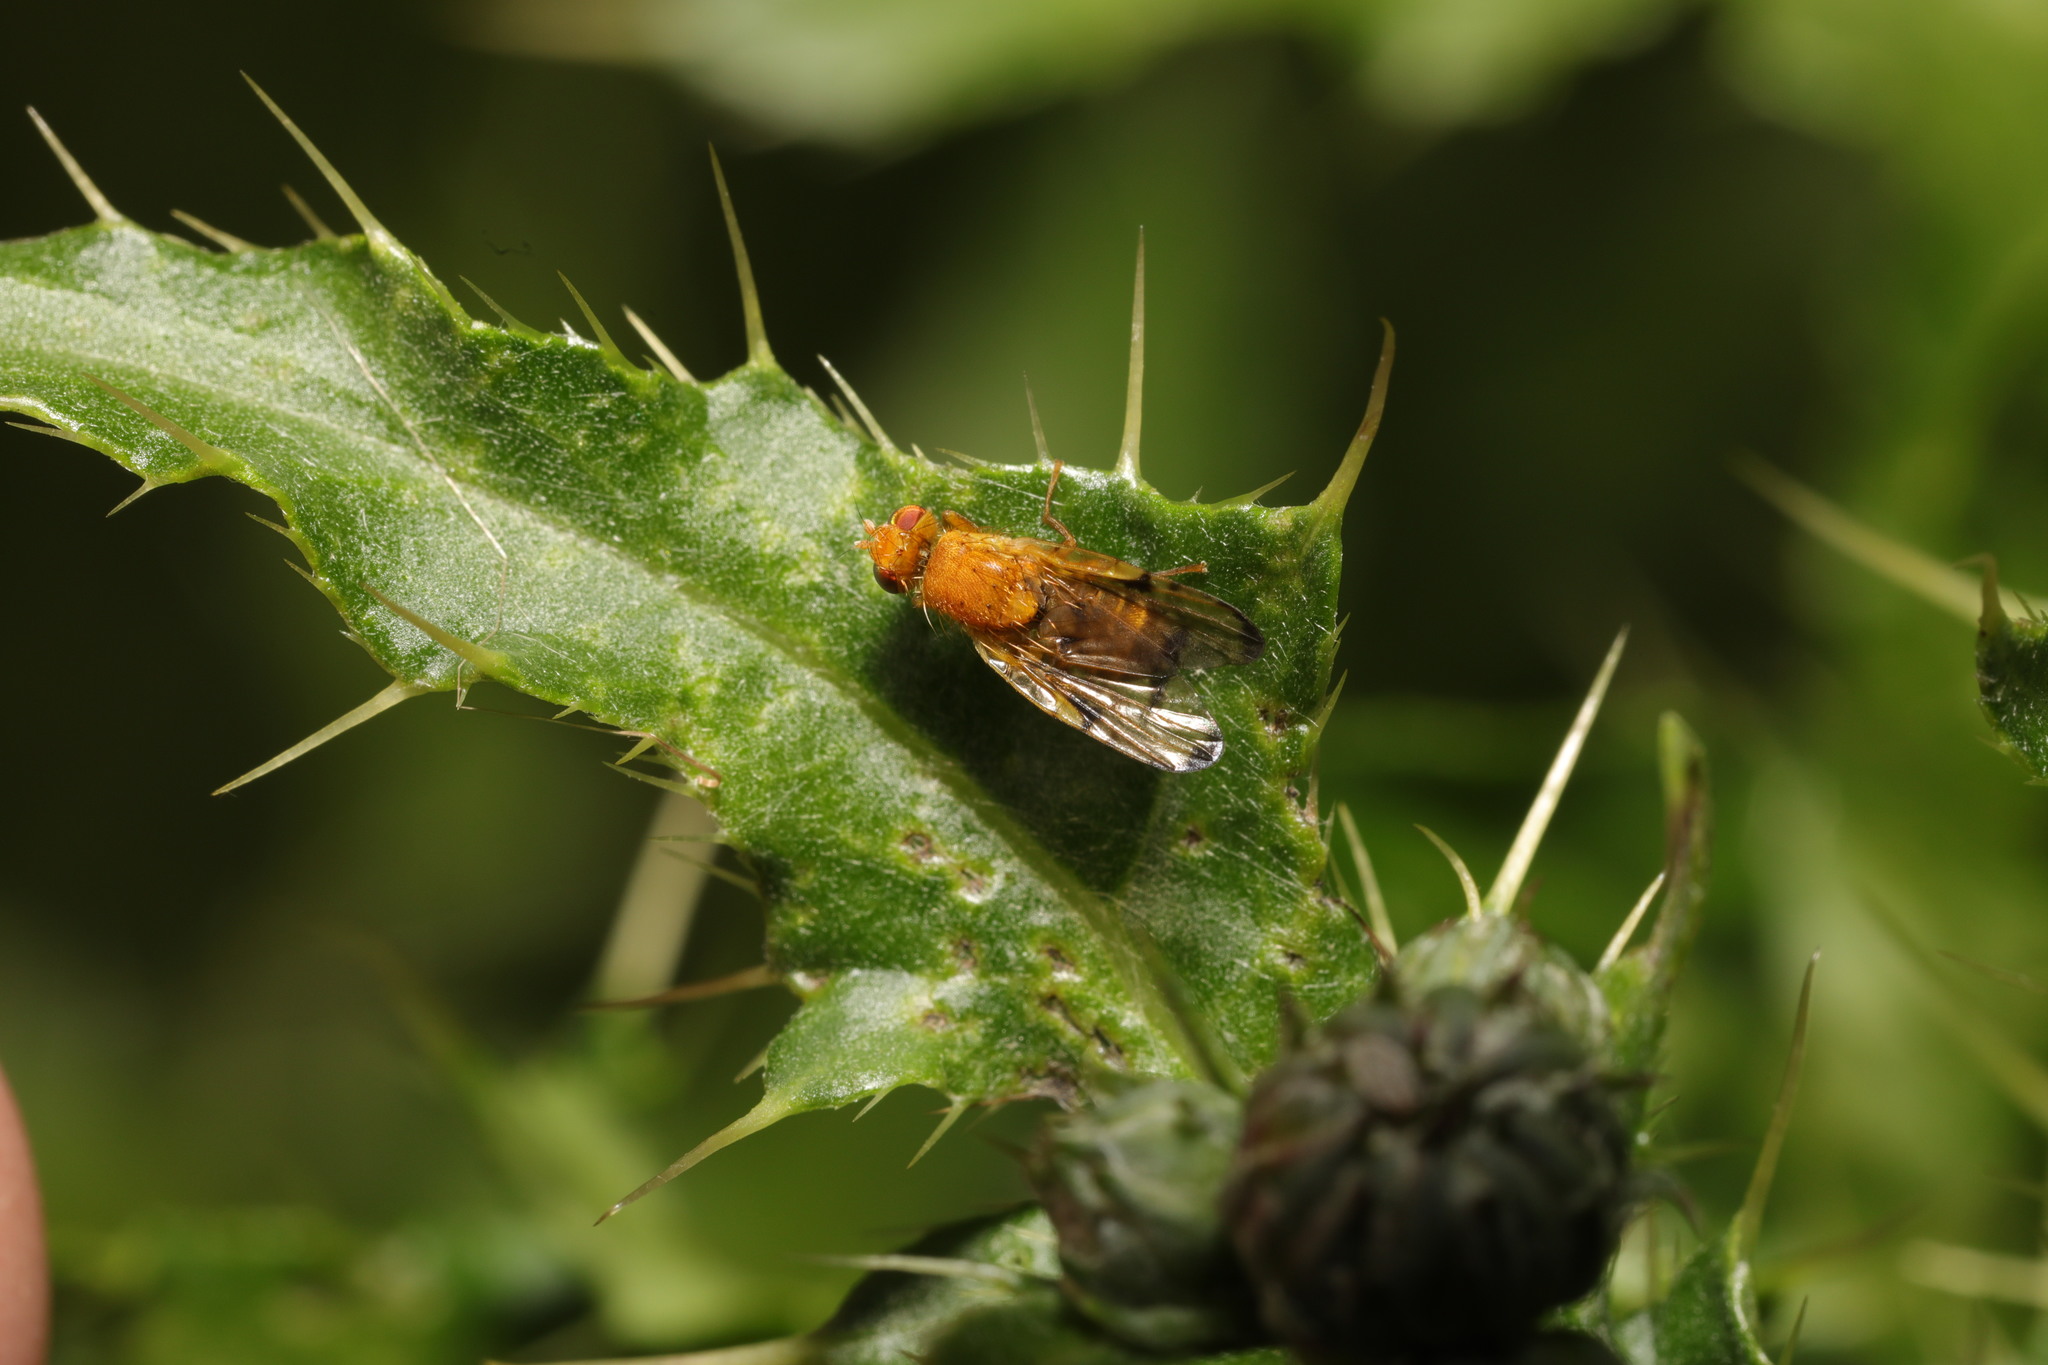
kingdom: Animalia
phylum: Arthropoda
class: Insecta
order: Diptera
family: Tephritidae
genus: Xyphosia
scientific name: Xyphosia miliaria
